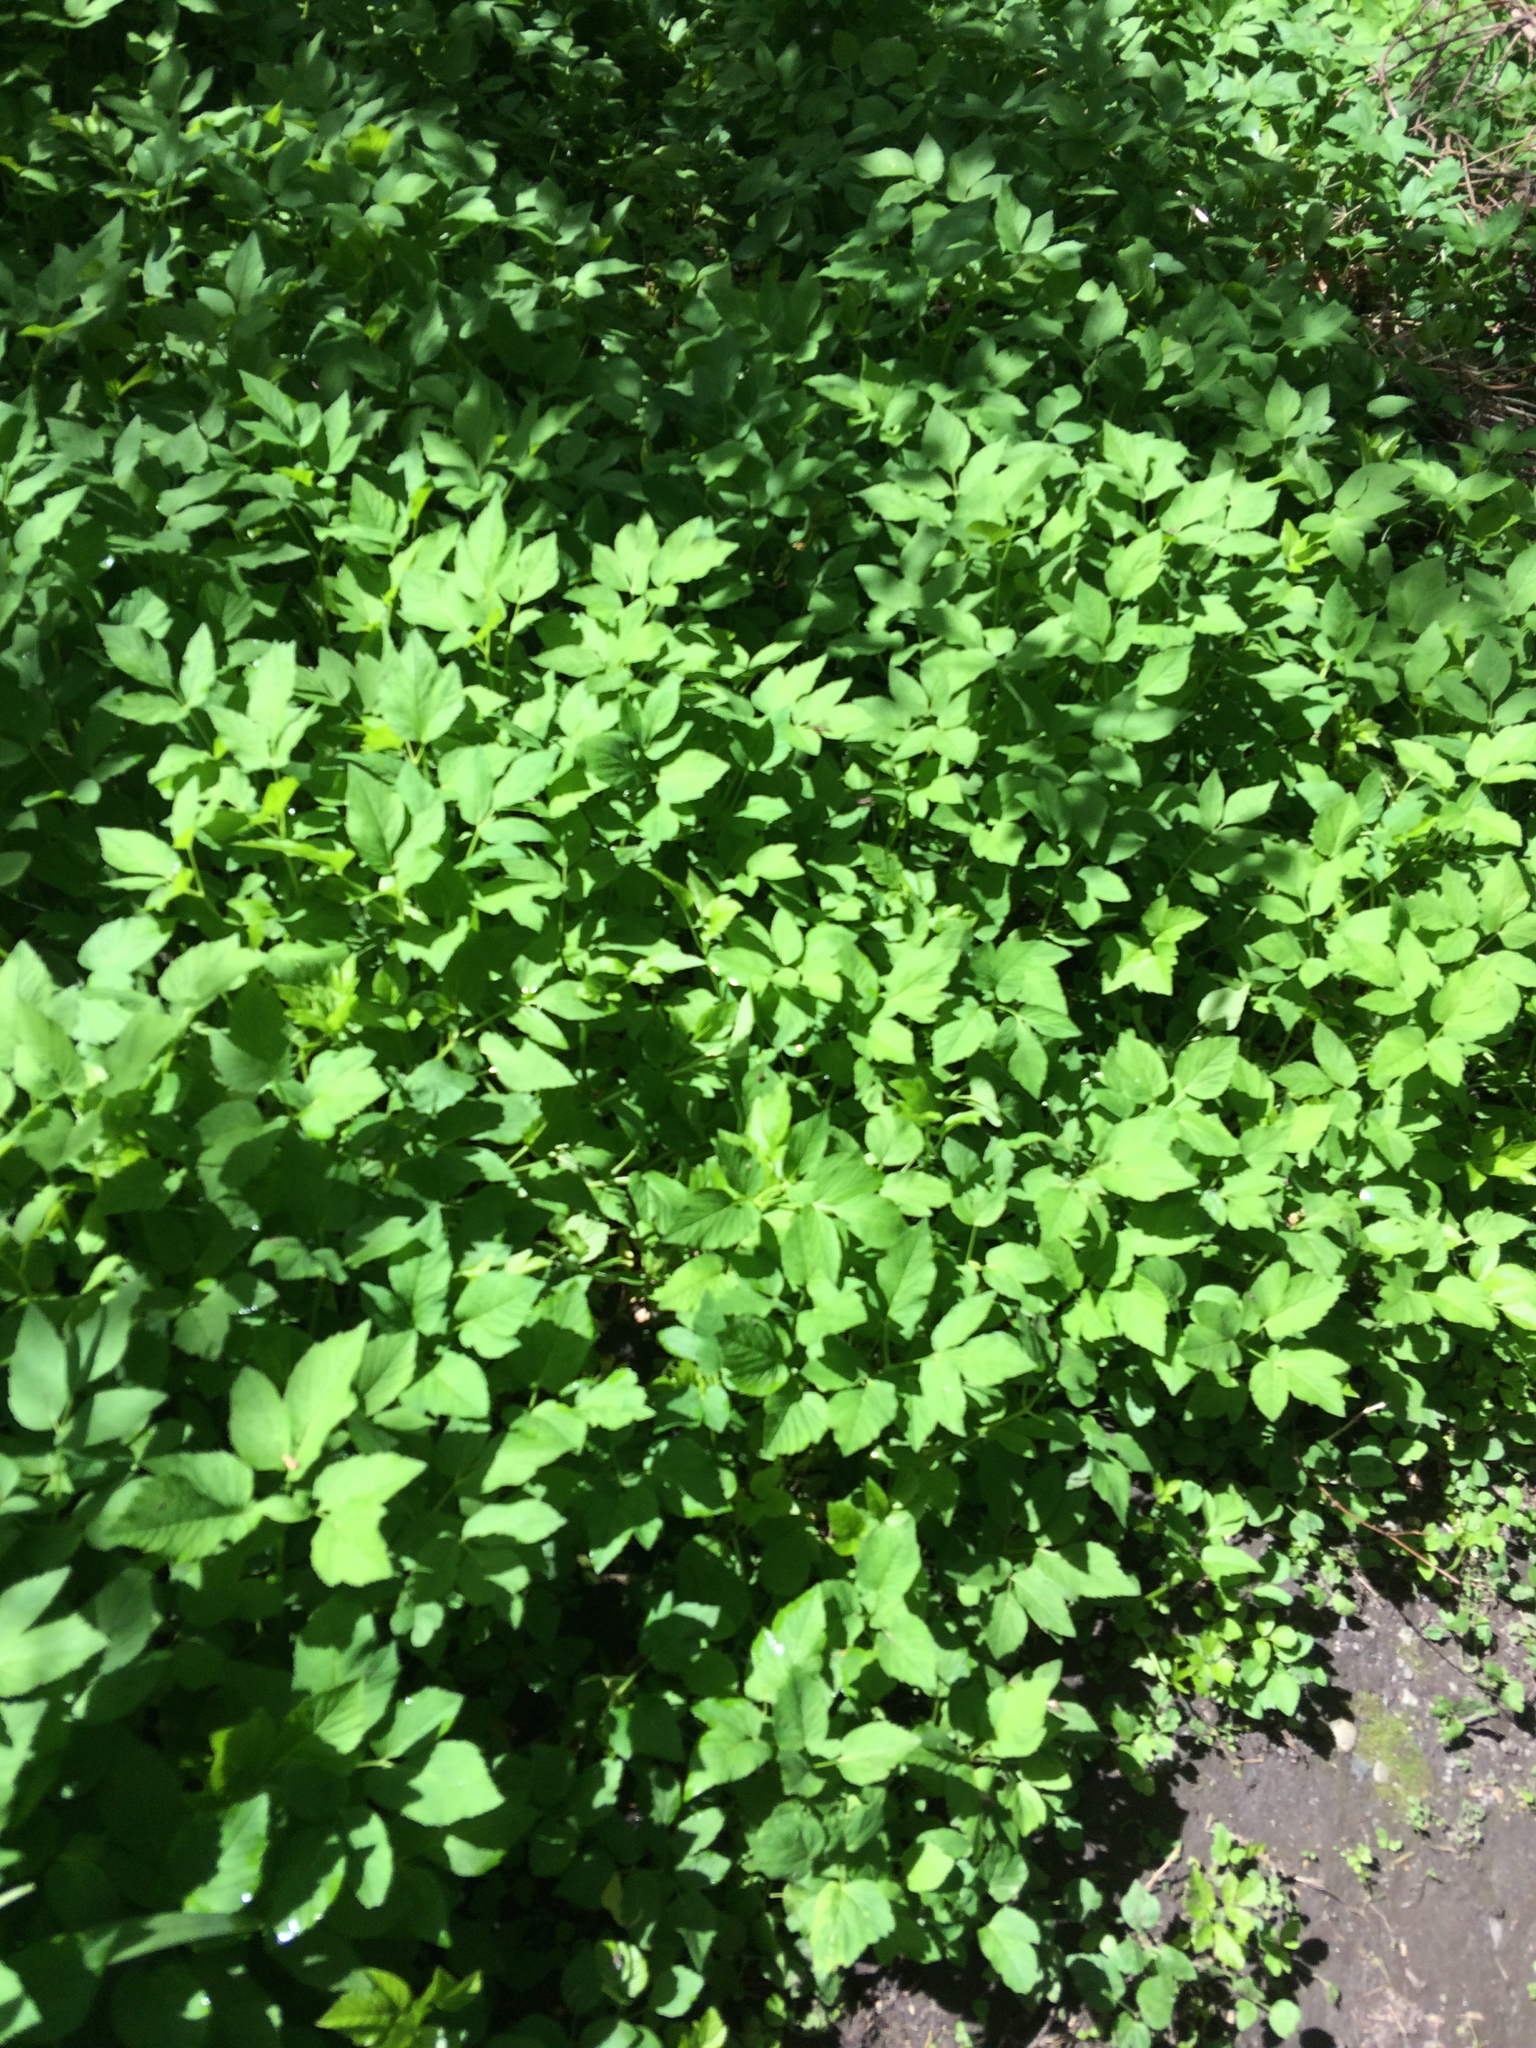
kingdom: Plantae
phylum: Tracheophyta
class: Magnoliopsida
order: Apiales
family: Apiaceae
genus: Aegopodium
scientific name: Aegopodium podagraria
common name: Ground-elder
